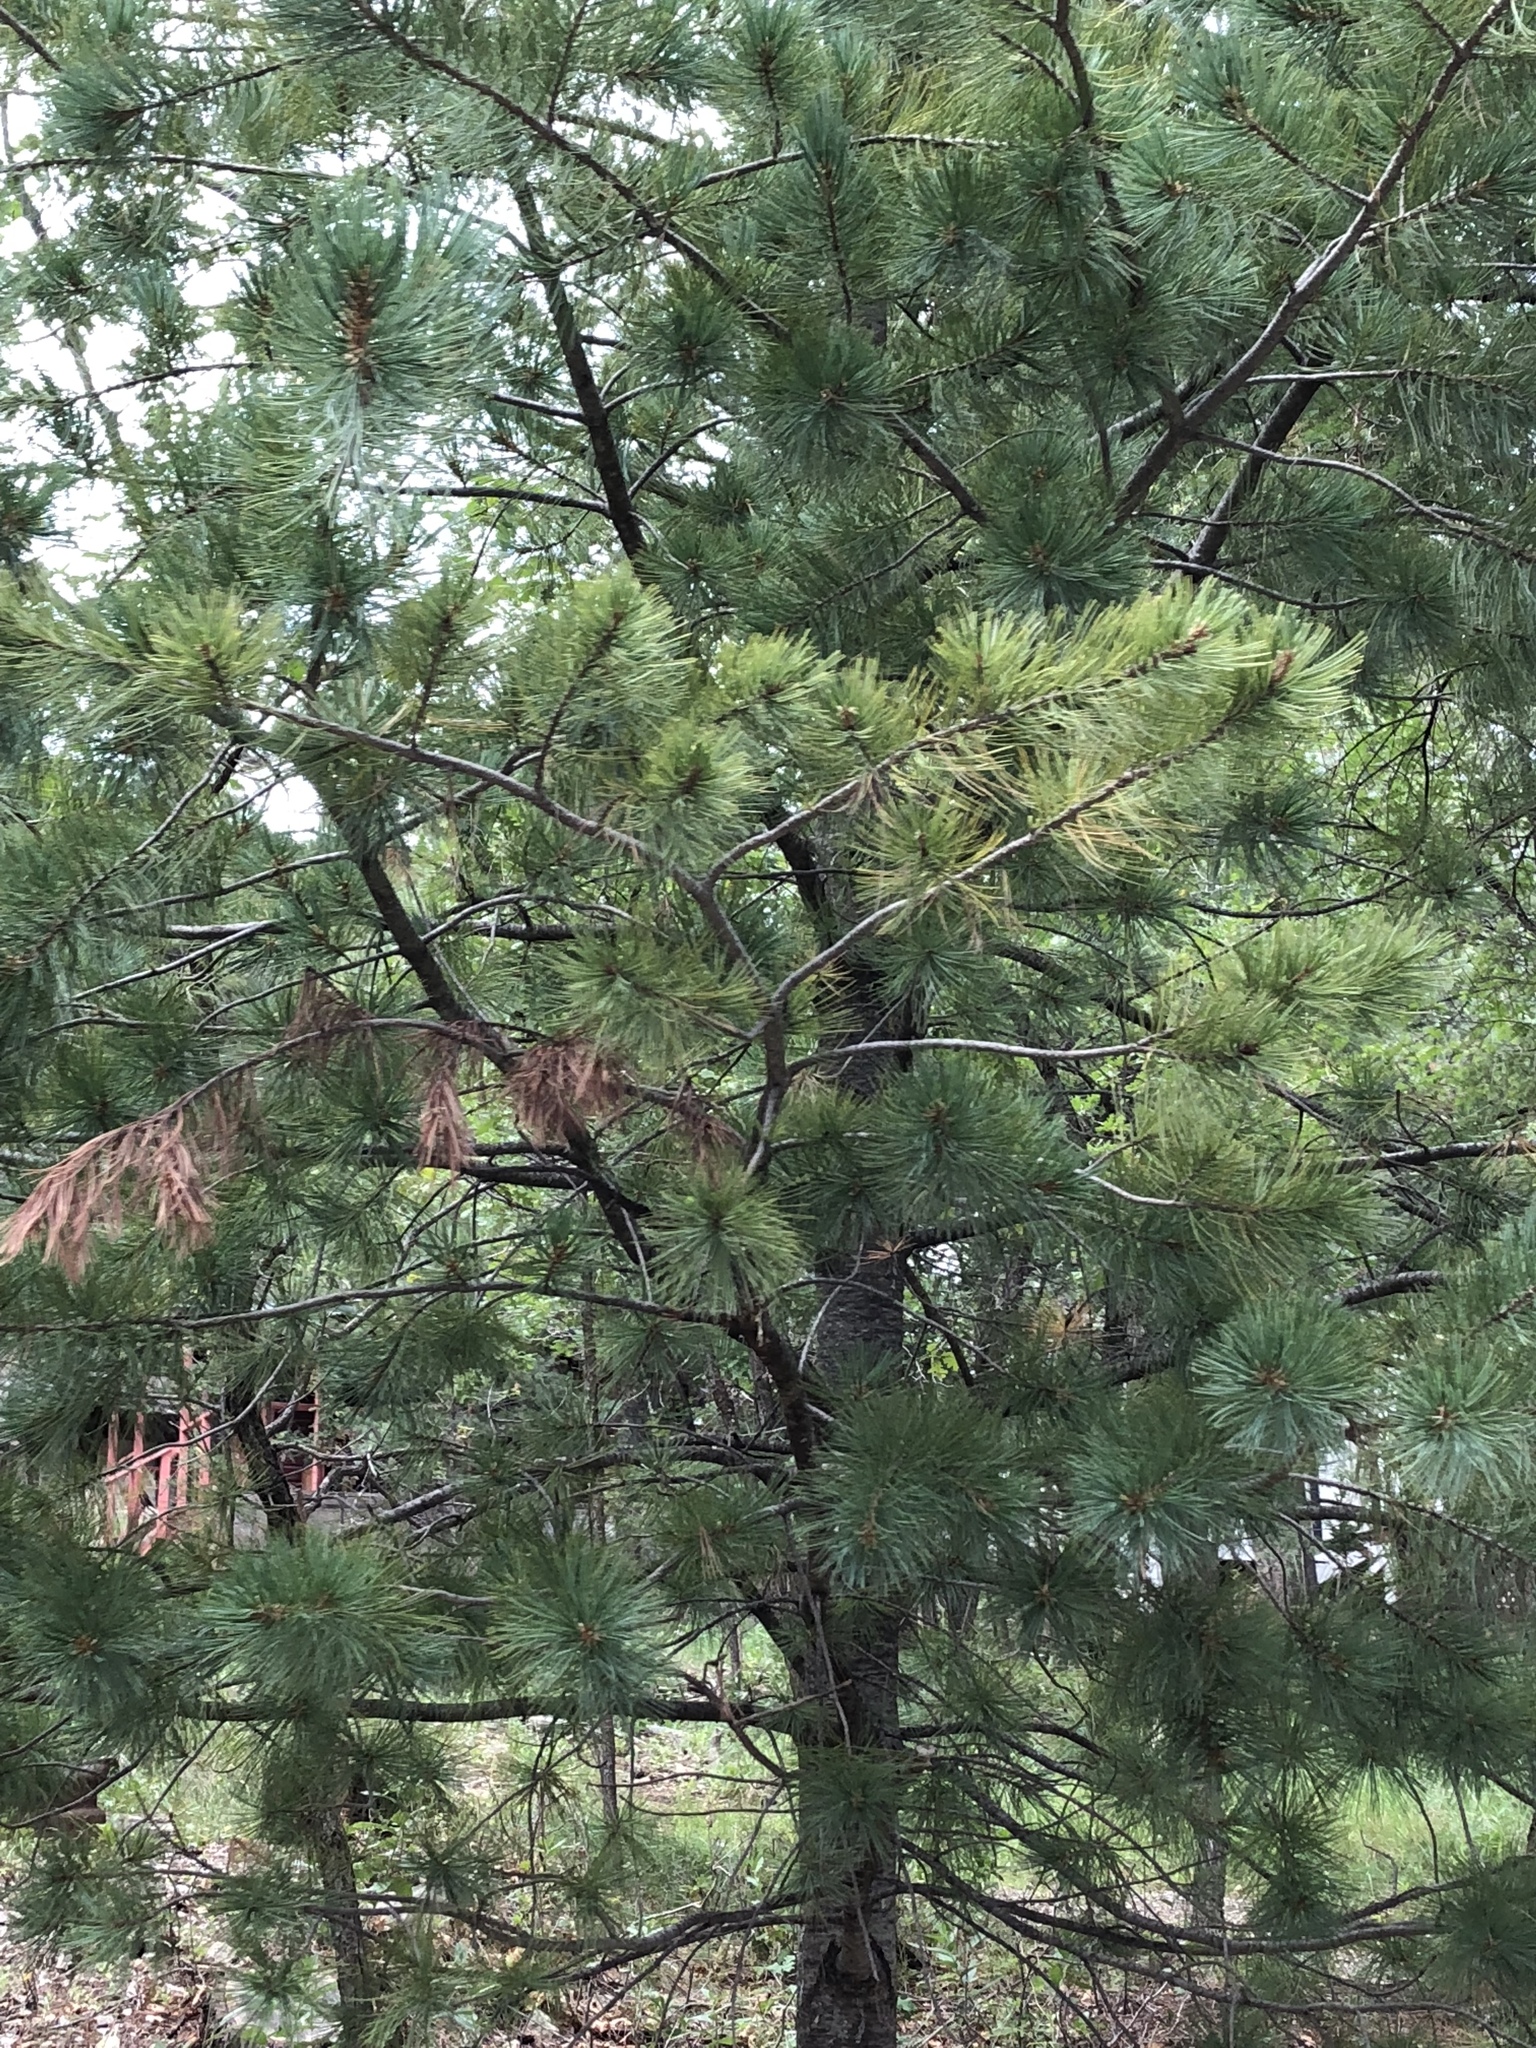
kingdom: Plantae
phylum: Tracheophyta
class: Pinopsida
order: Pinales
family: Pinaceae
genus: Pinus
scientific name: Pinus ponderosa
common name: Western yellow-pine
